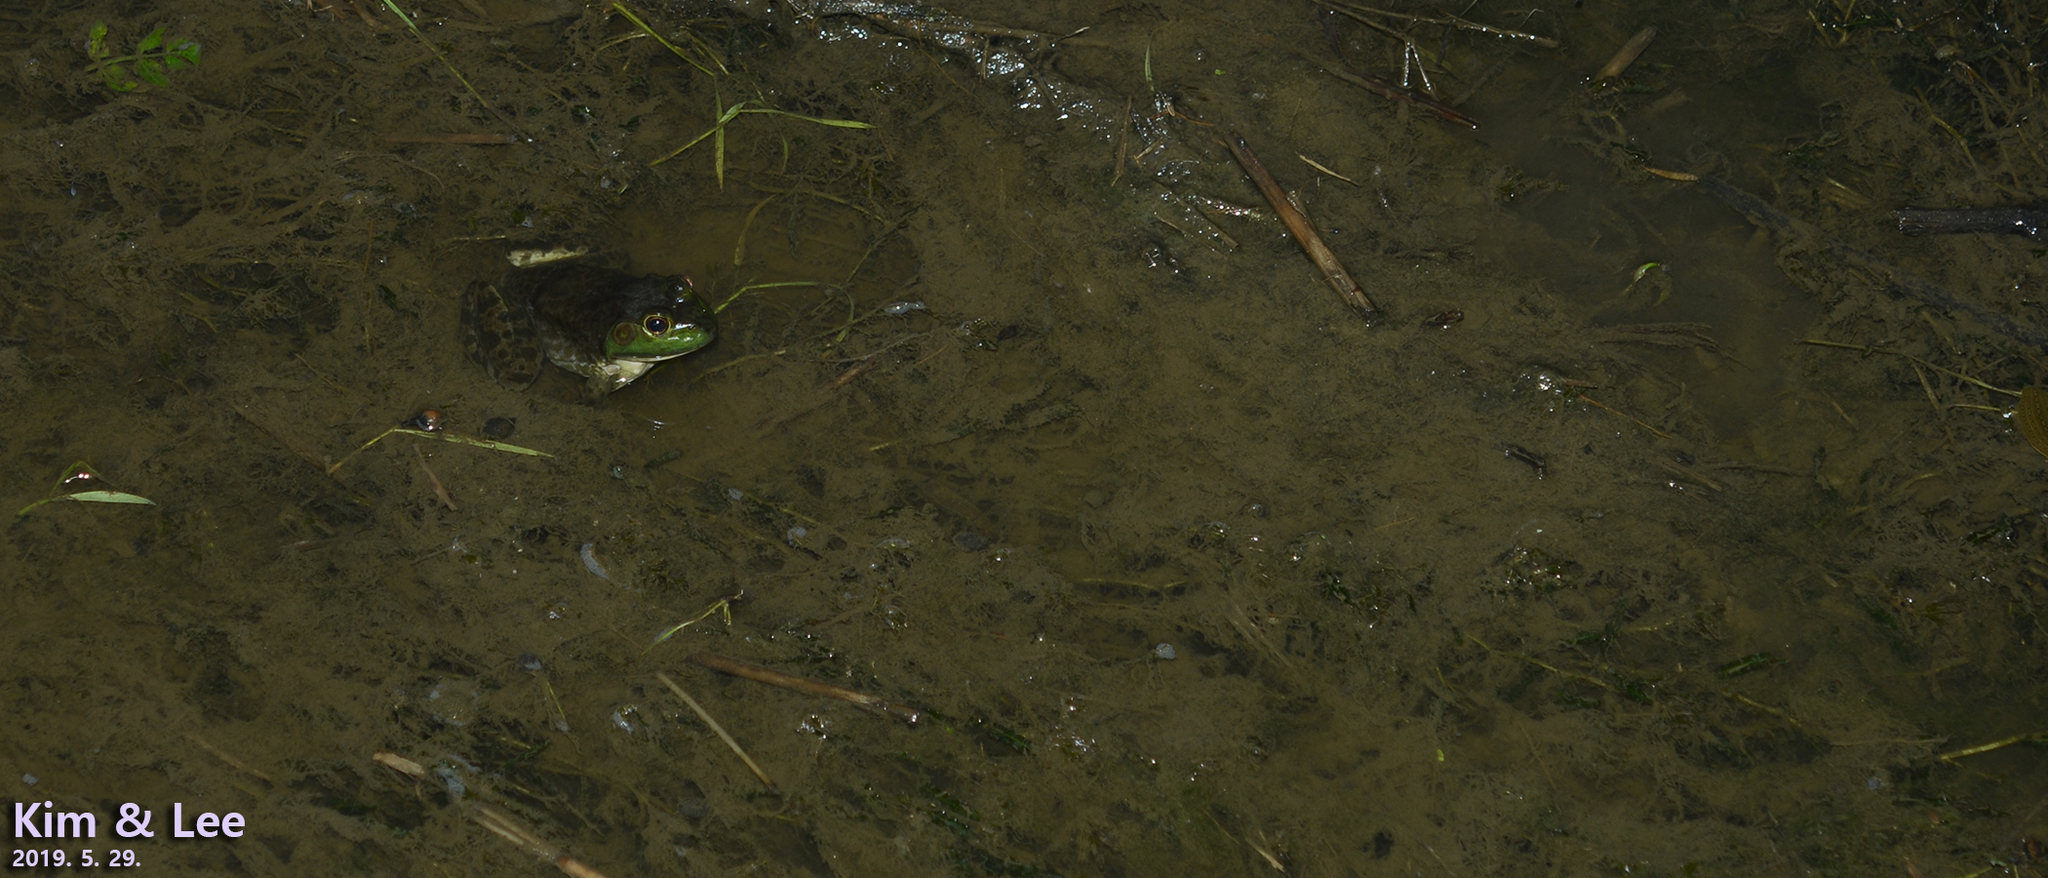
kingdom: Animalia
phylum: Chordata
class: Amphibia
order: Anura
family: Ranidae
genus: Lithobates
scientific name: Lithobates catesbeianus
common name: American bullfrog
